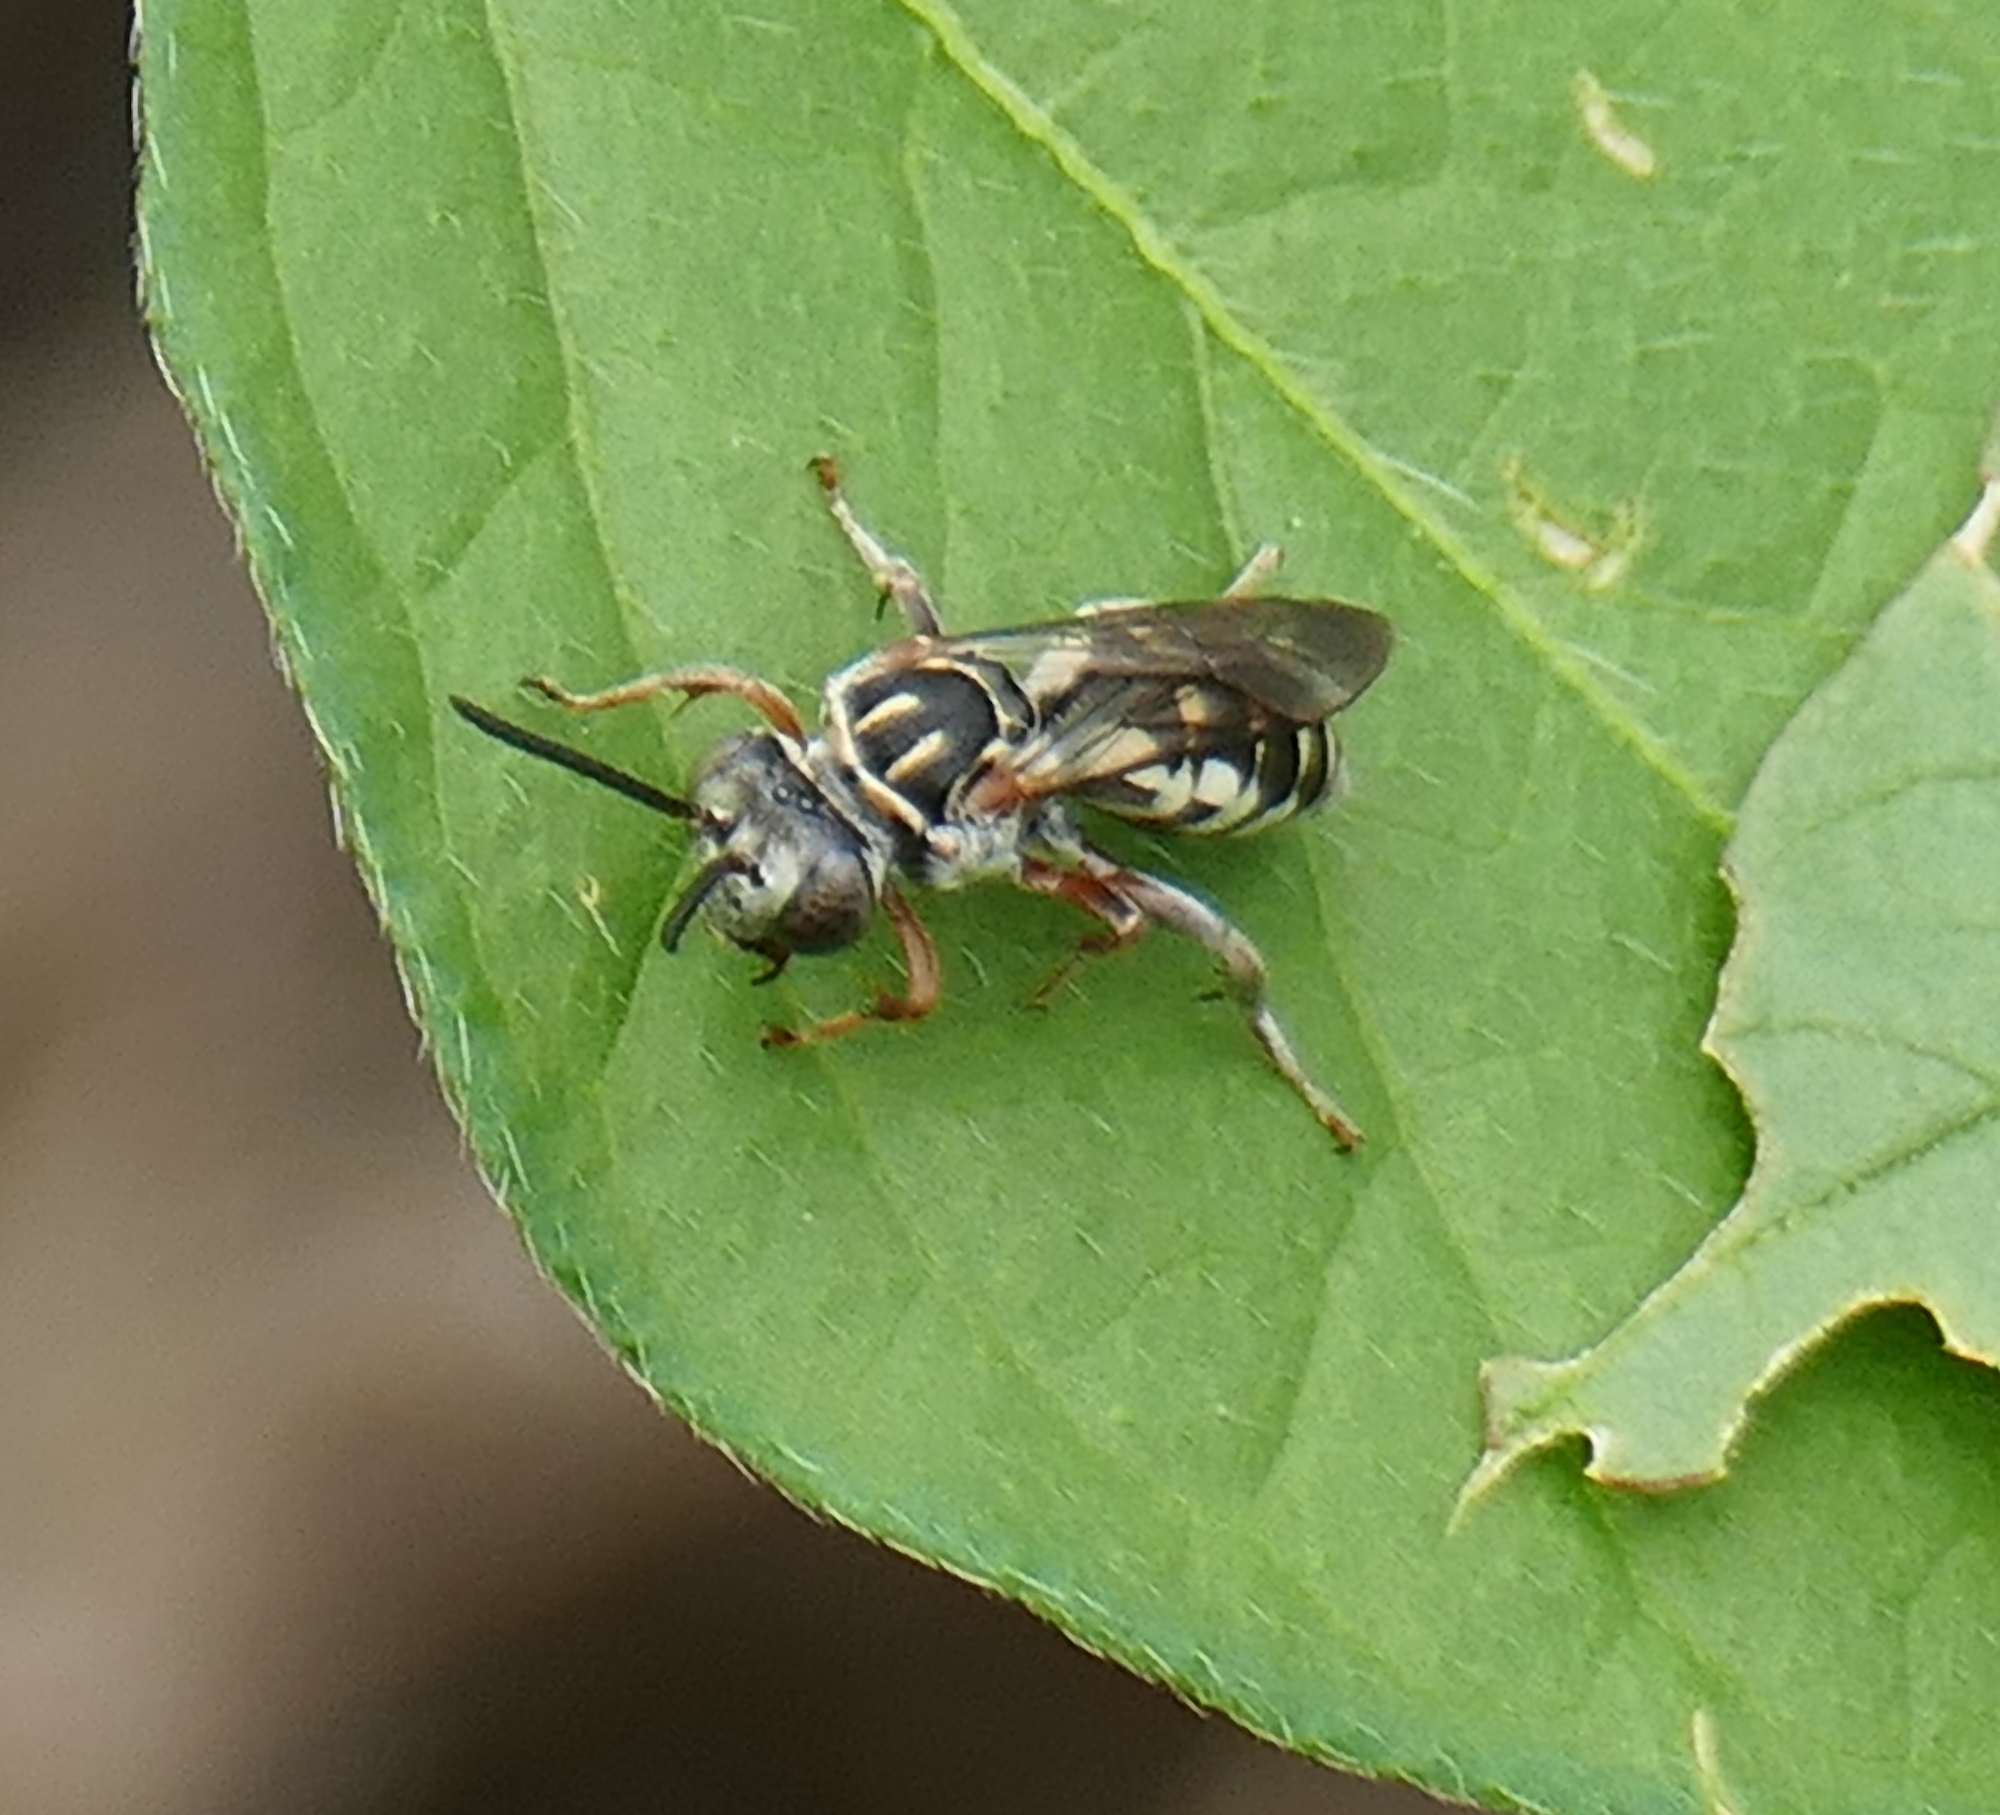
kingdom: Animalia
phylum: Arthropoda
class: Insecta
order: Hymenoptera
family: Apidae
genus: Triepeolus
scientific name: Triepeolus verbesinae
